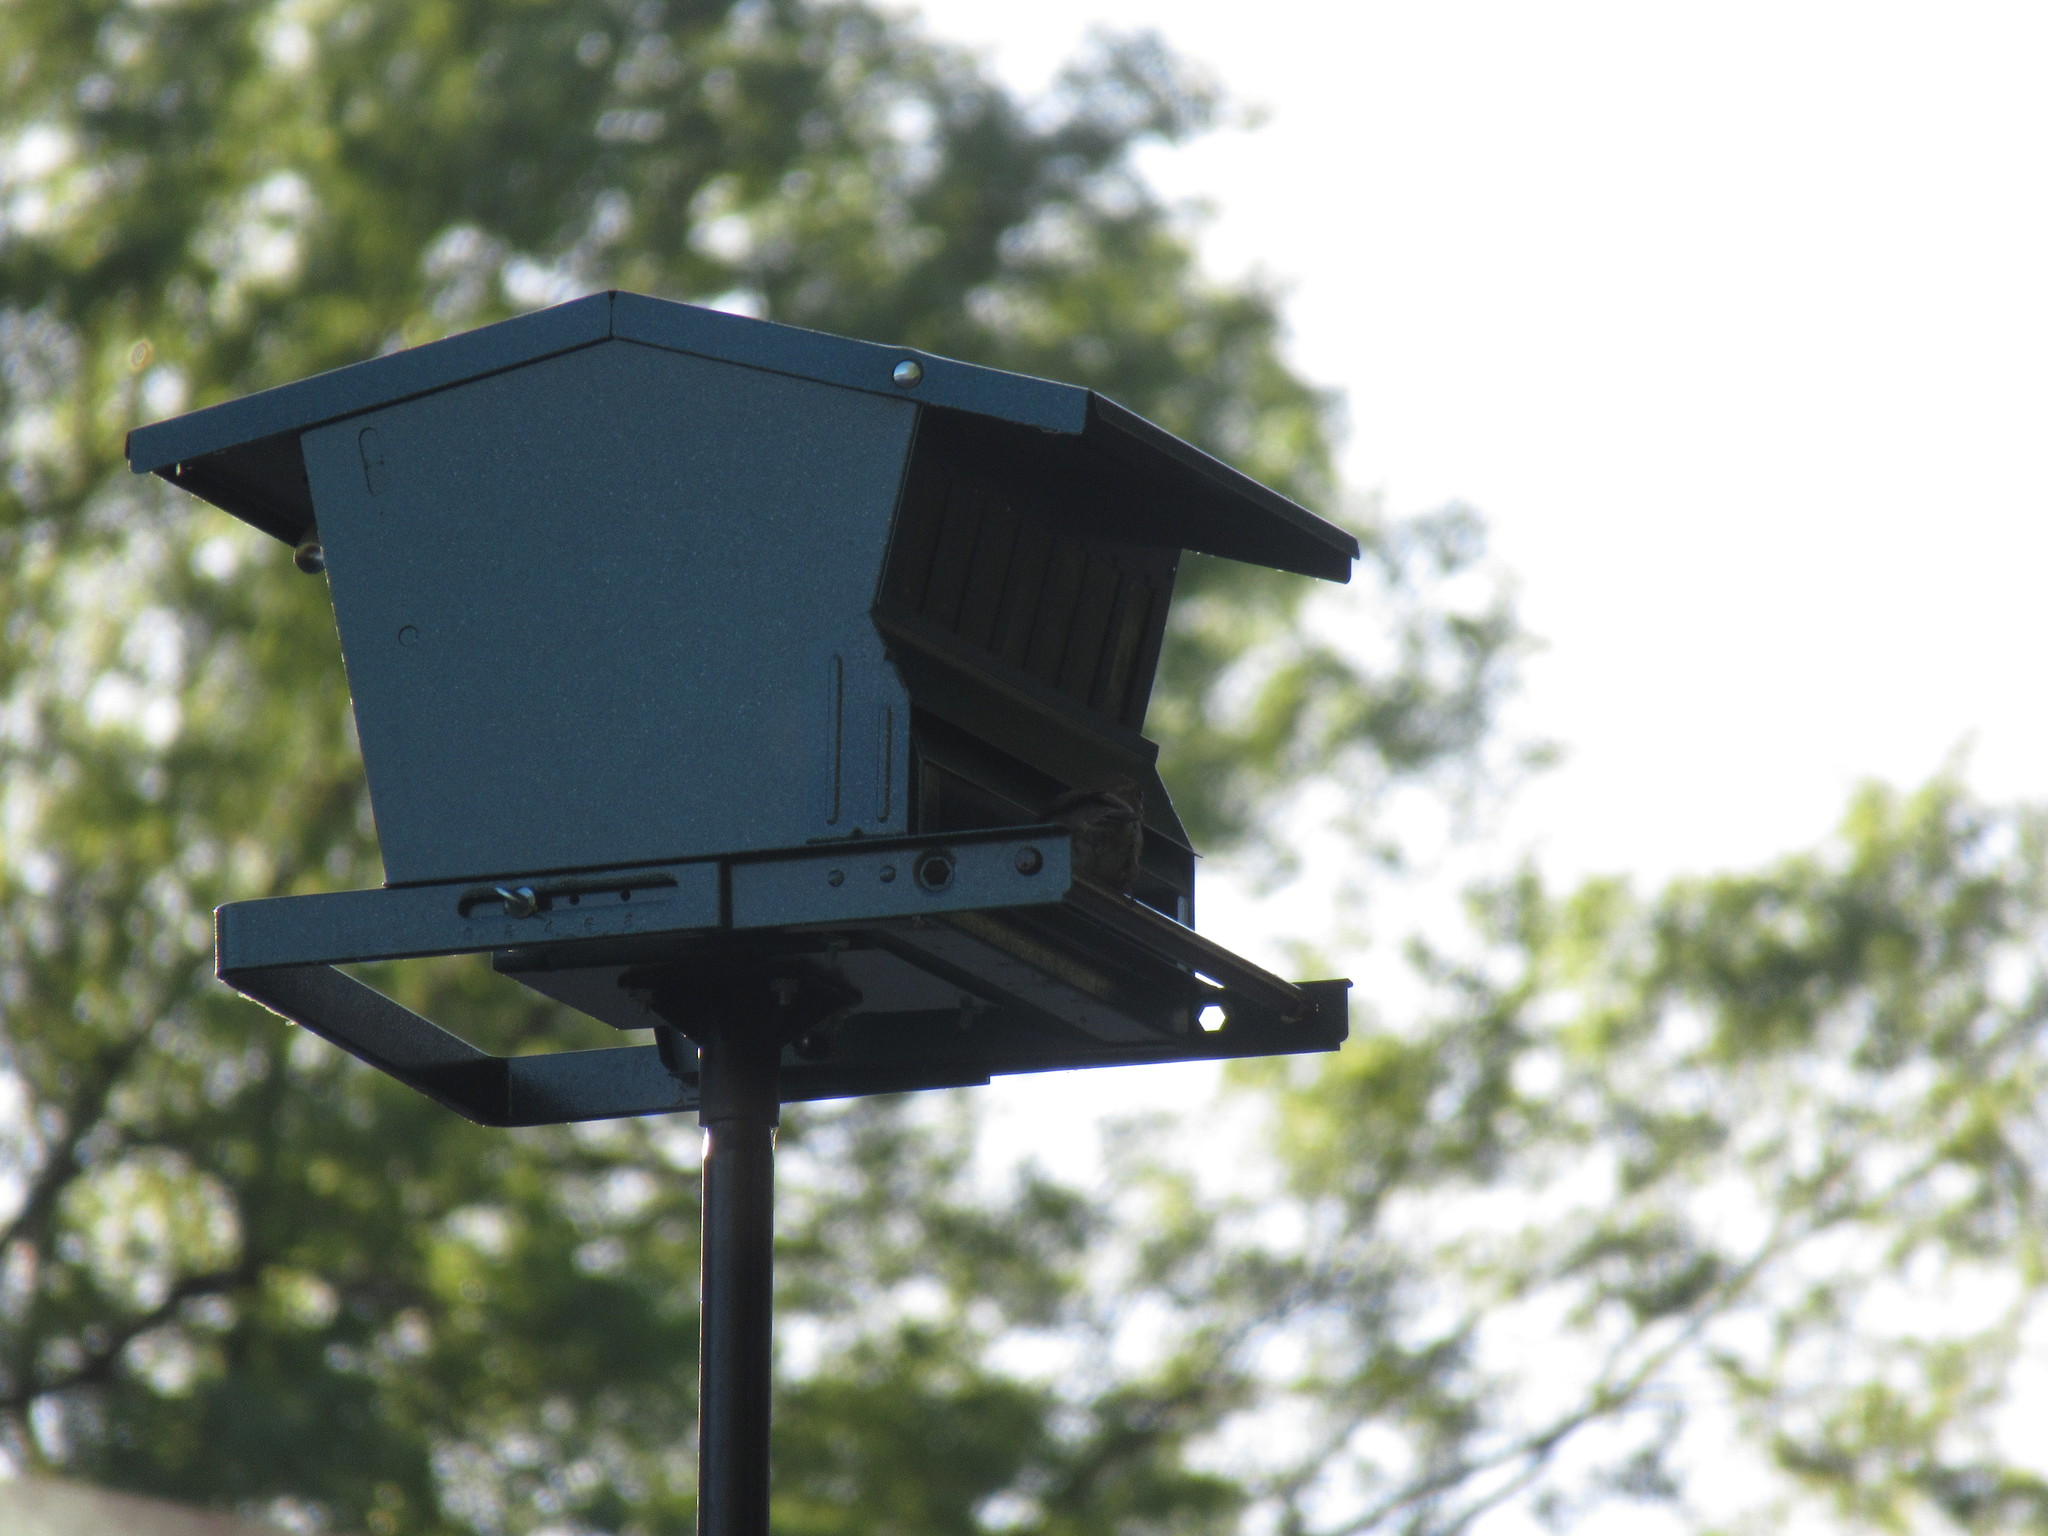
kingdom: Animalia
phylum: Chordata
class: Aves
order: Passeriformes
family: Passeridae
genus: Passer
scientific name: Passer domesticus
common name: House sparrow
